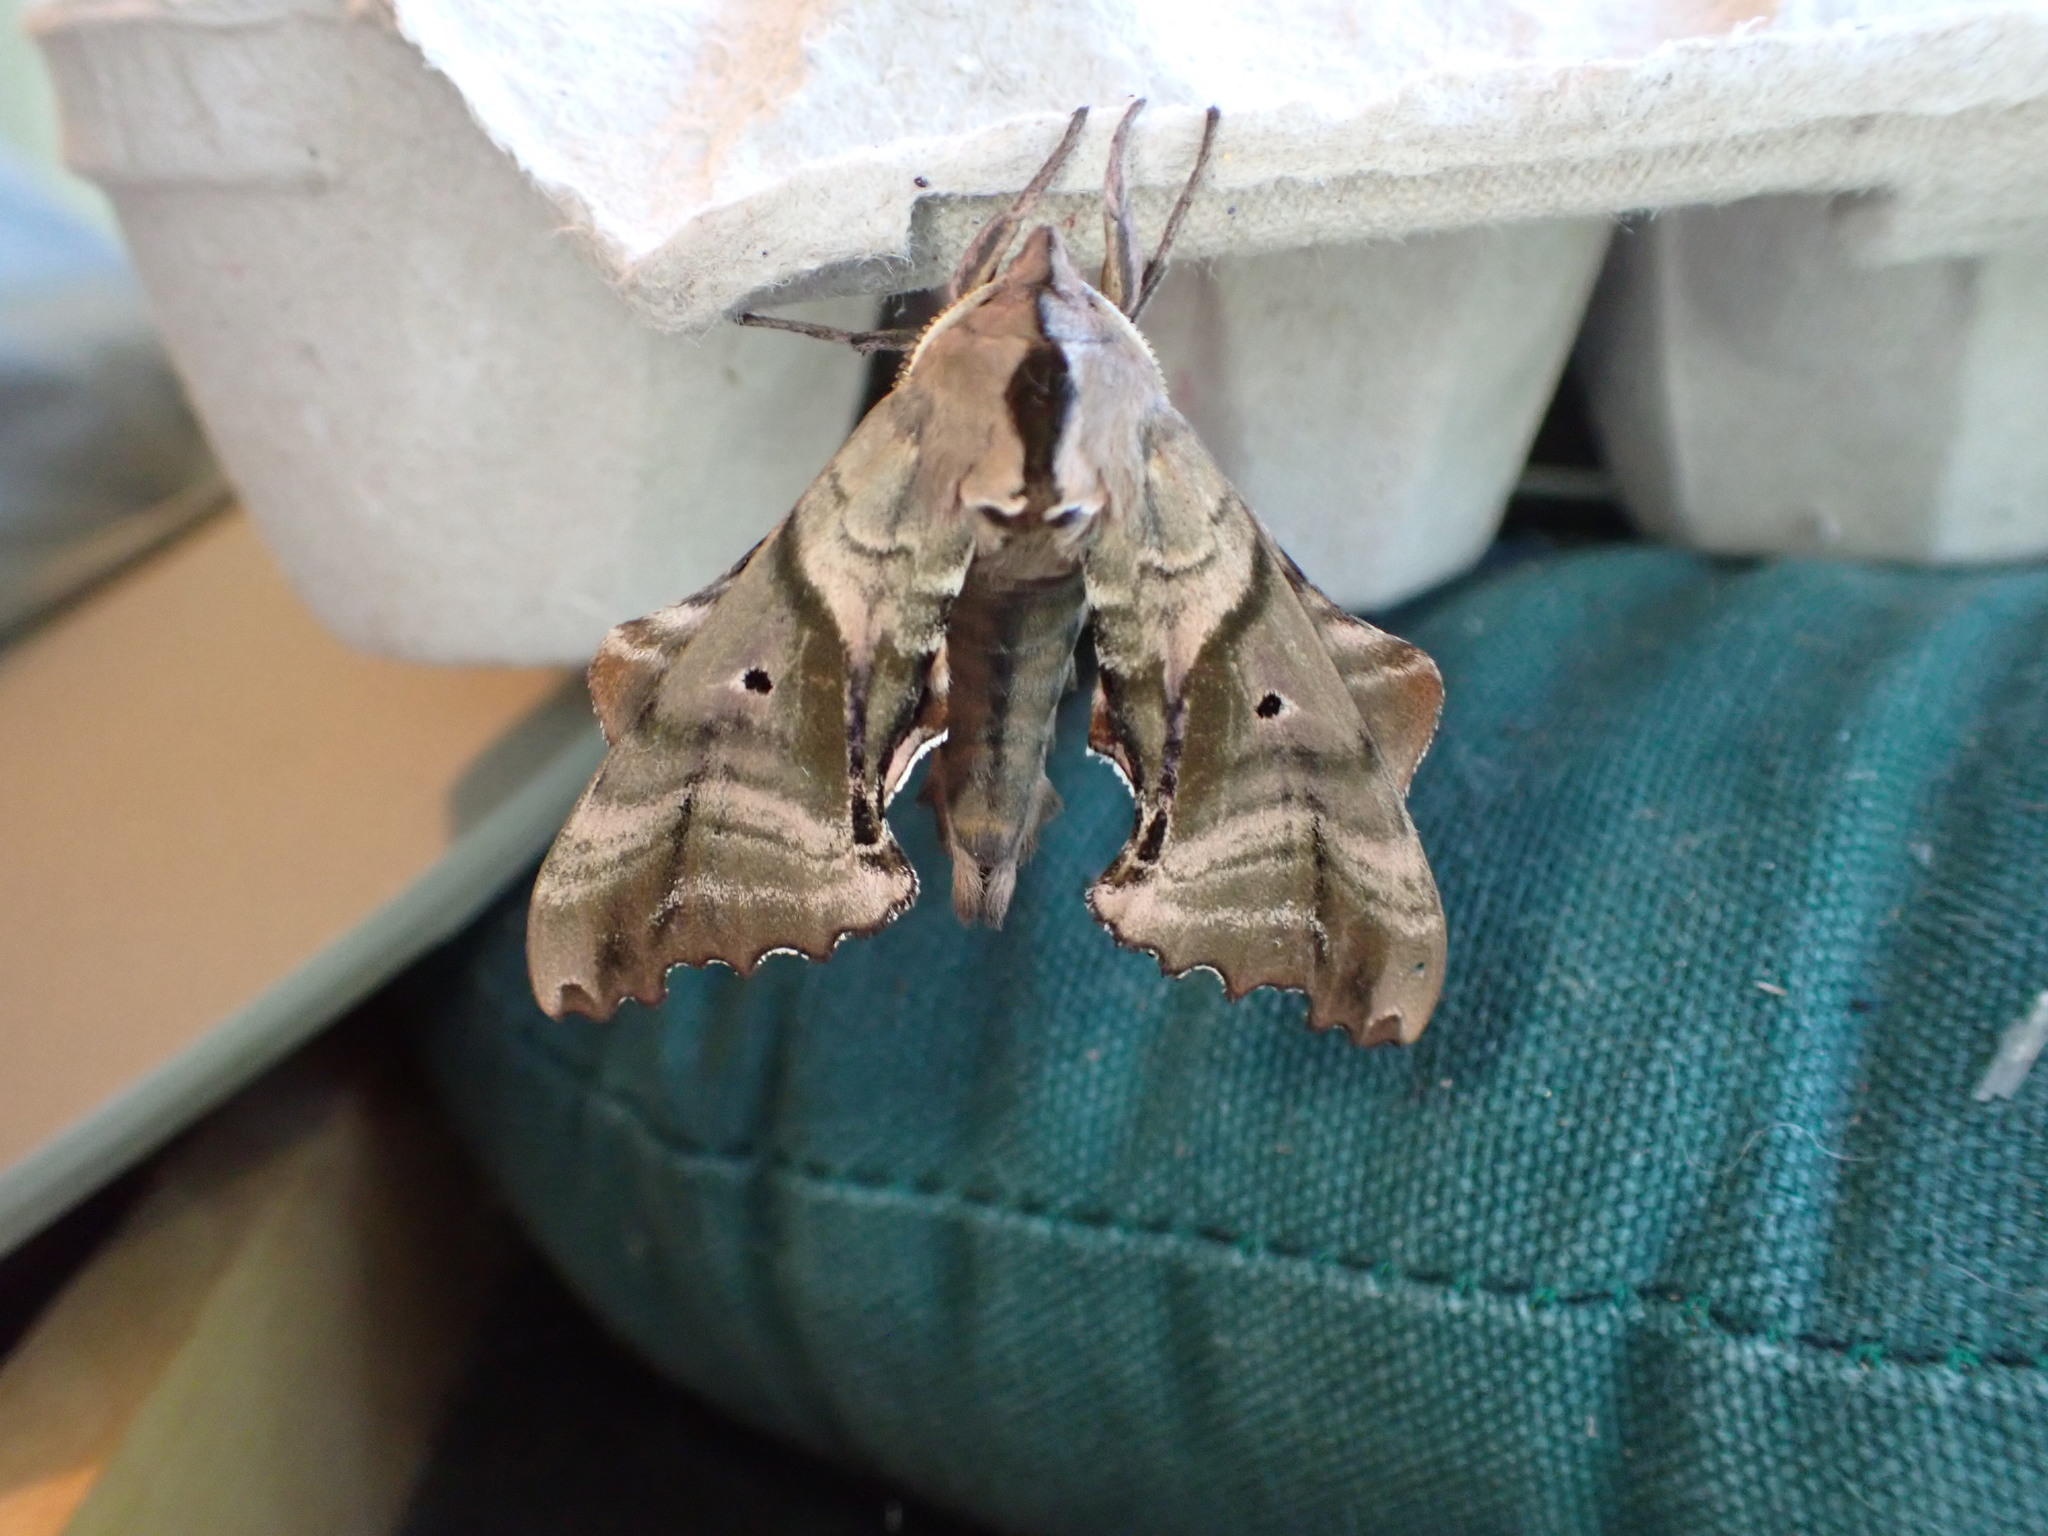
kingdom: Animalia
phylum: Arthropoda
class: Insecta
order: Lepidoptera
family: Sphingidae
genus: Paonias
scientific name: Paonias excaecata
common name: Blind-eyed sphinx
